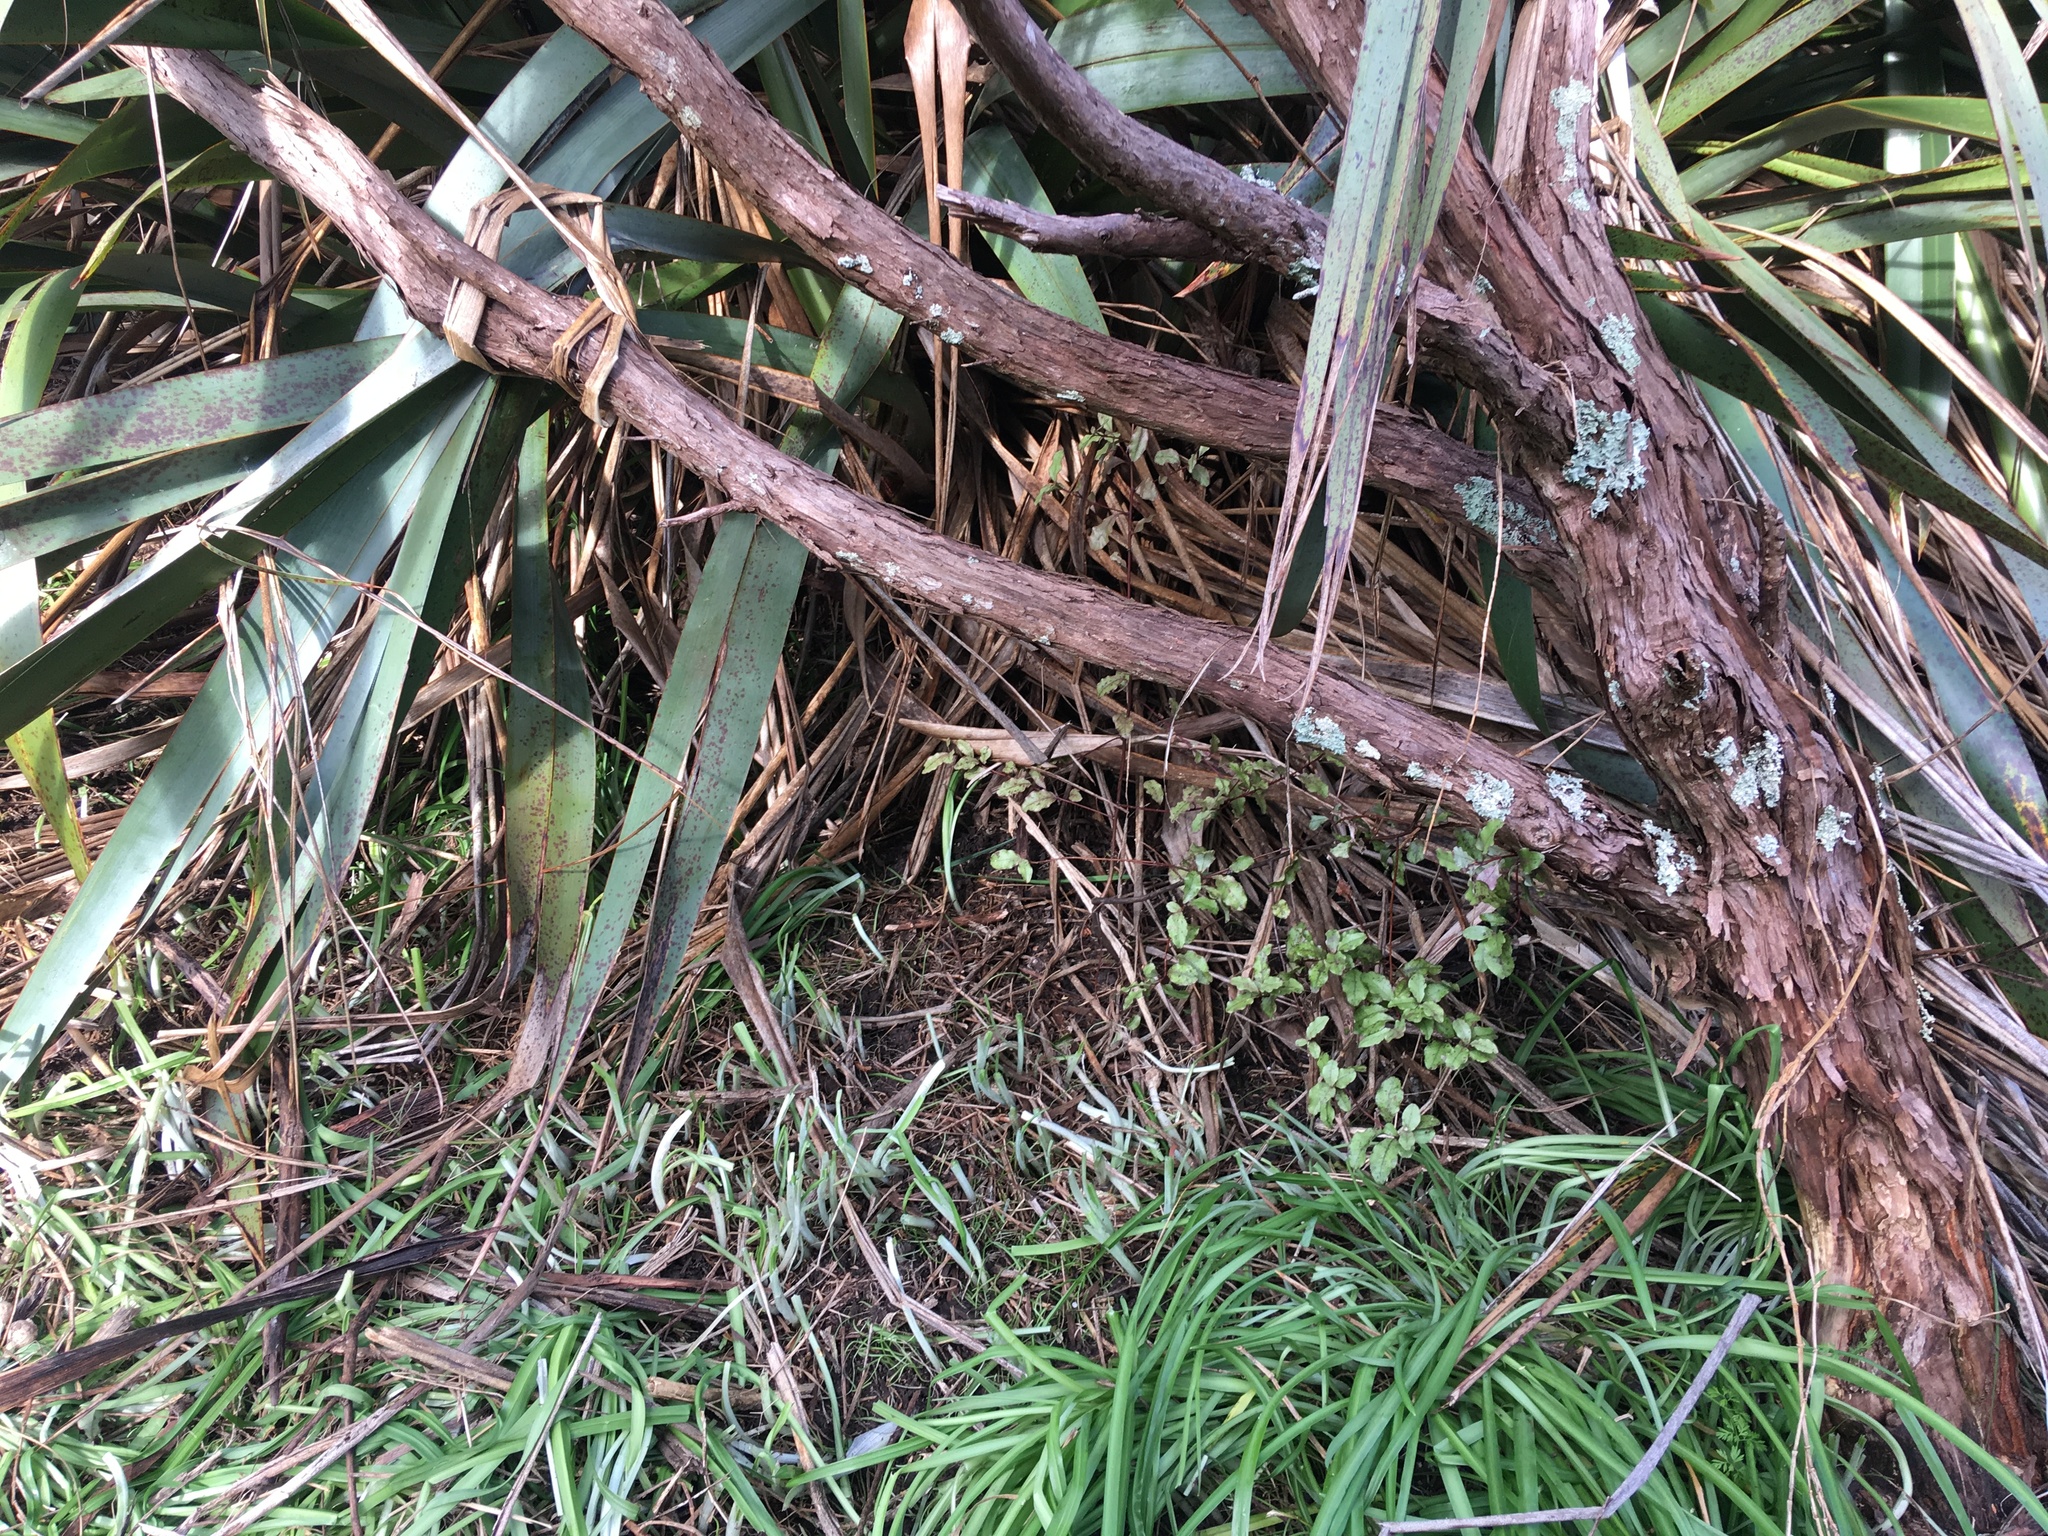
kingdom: Plantae
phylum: Tracheophyta
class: Liliopsida
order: Asparagales
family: Amaryllidaceae
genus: Allium
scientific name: Allium triquetrum
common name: Three-cornered garlic
